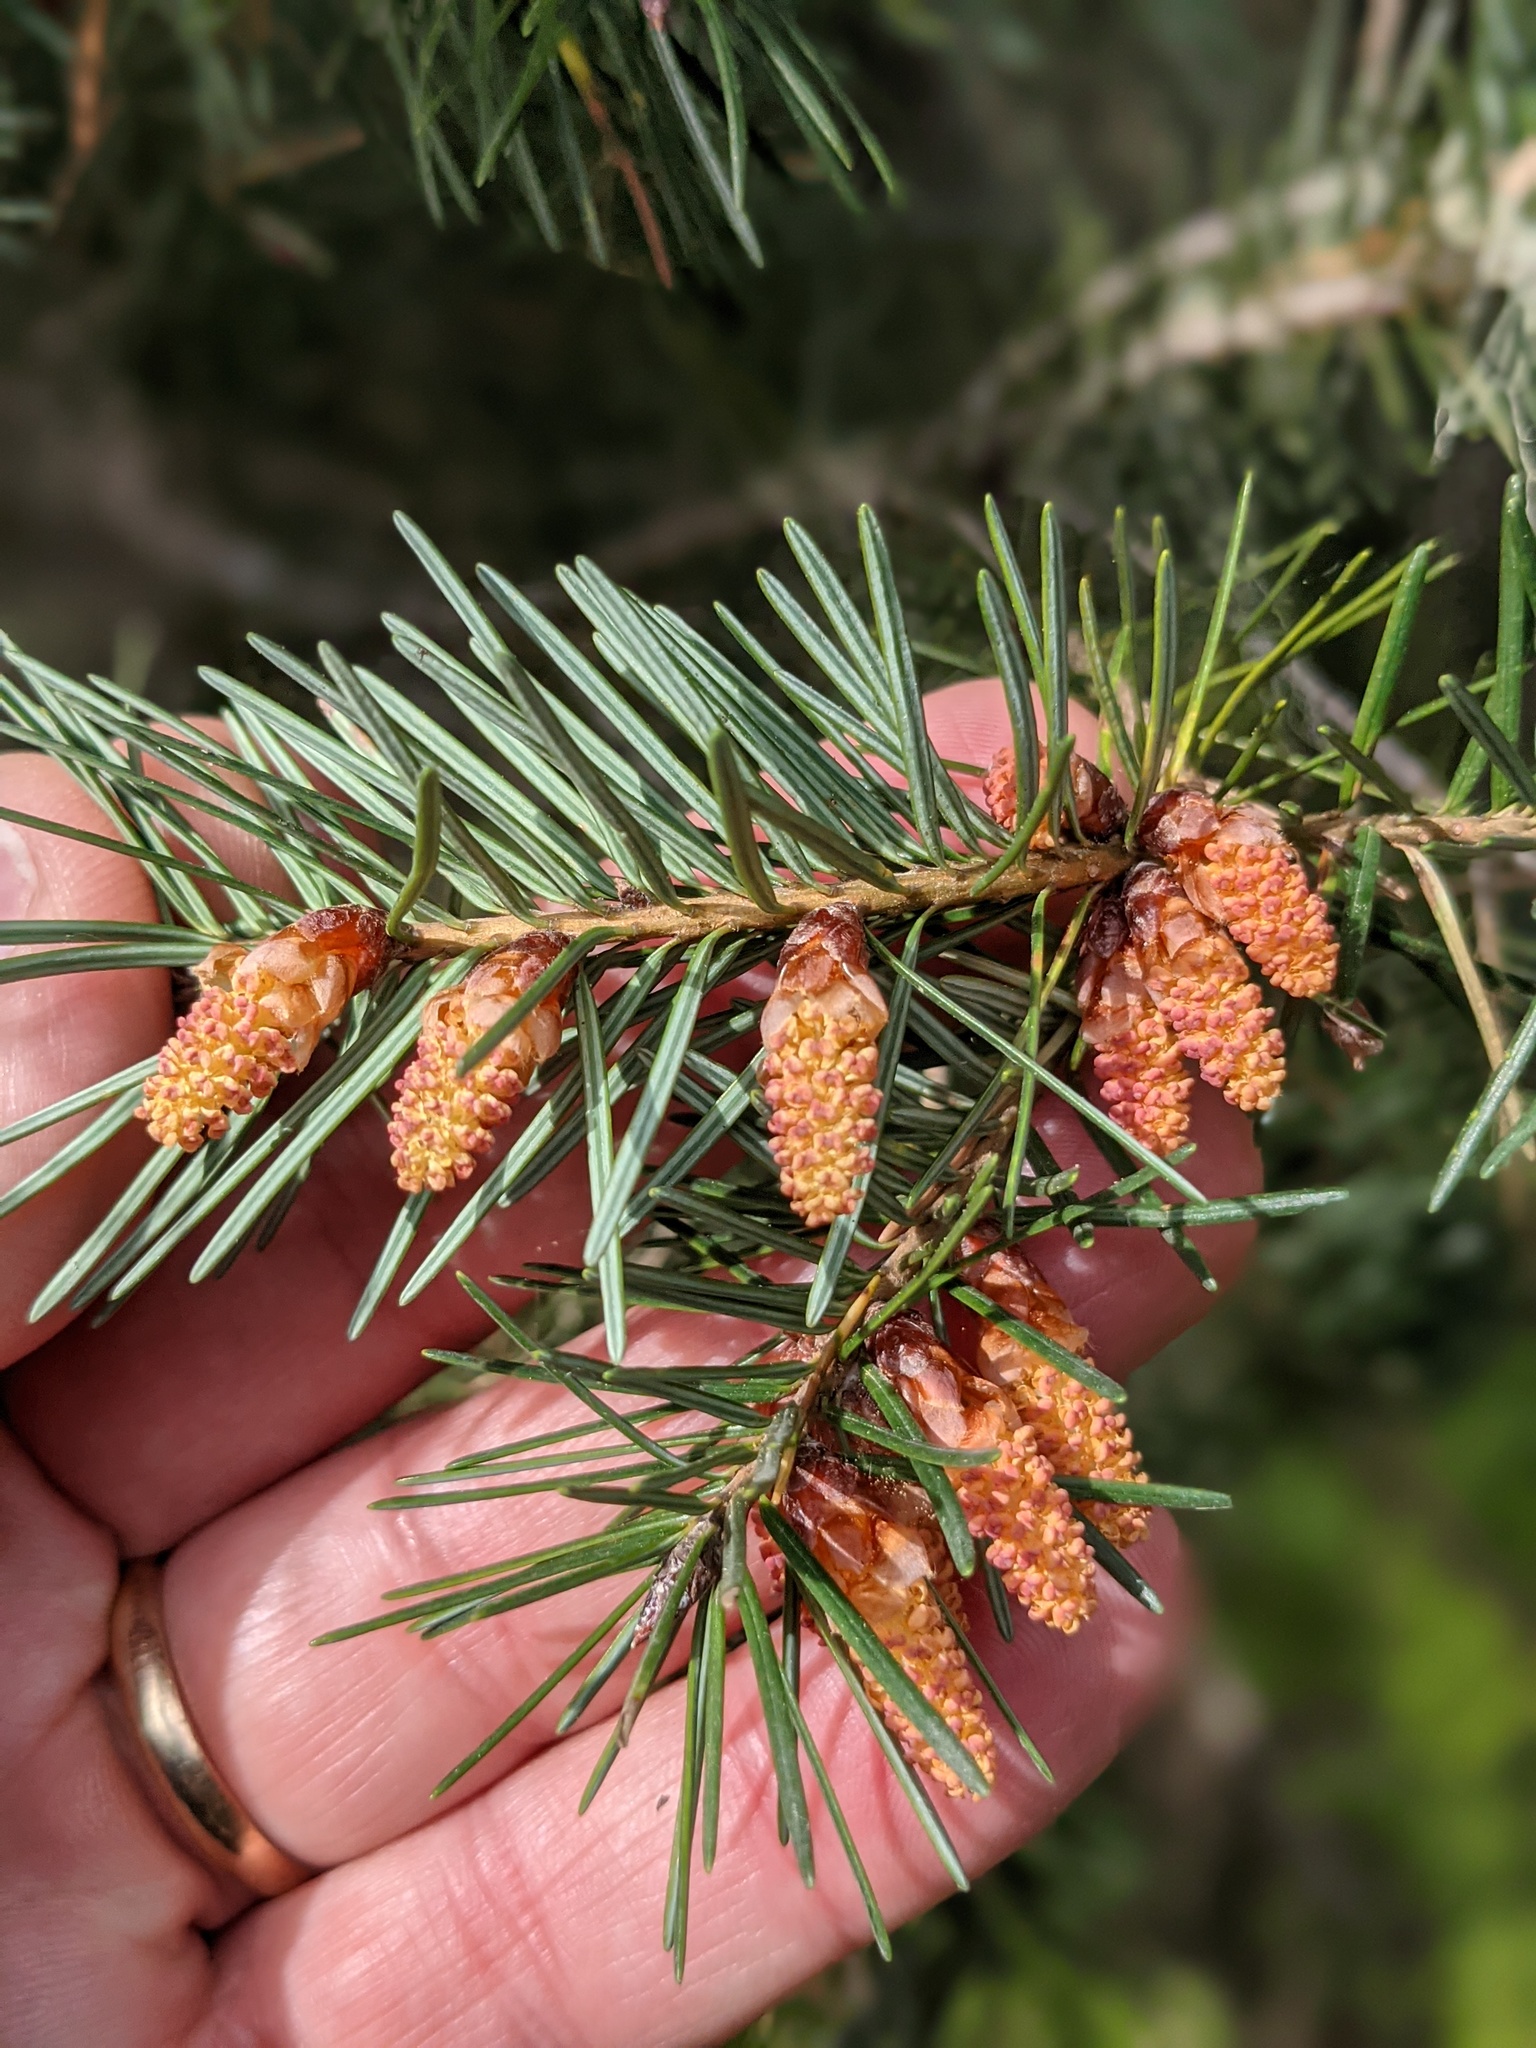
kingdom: Plantae
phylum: Tracheophyta
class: Pinopsida
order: Pinales
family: Pinaceae
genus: Pseudotsuga
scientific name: Pseudotsuga menziesii
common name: Douglas fir
